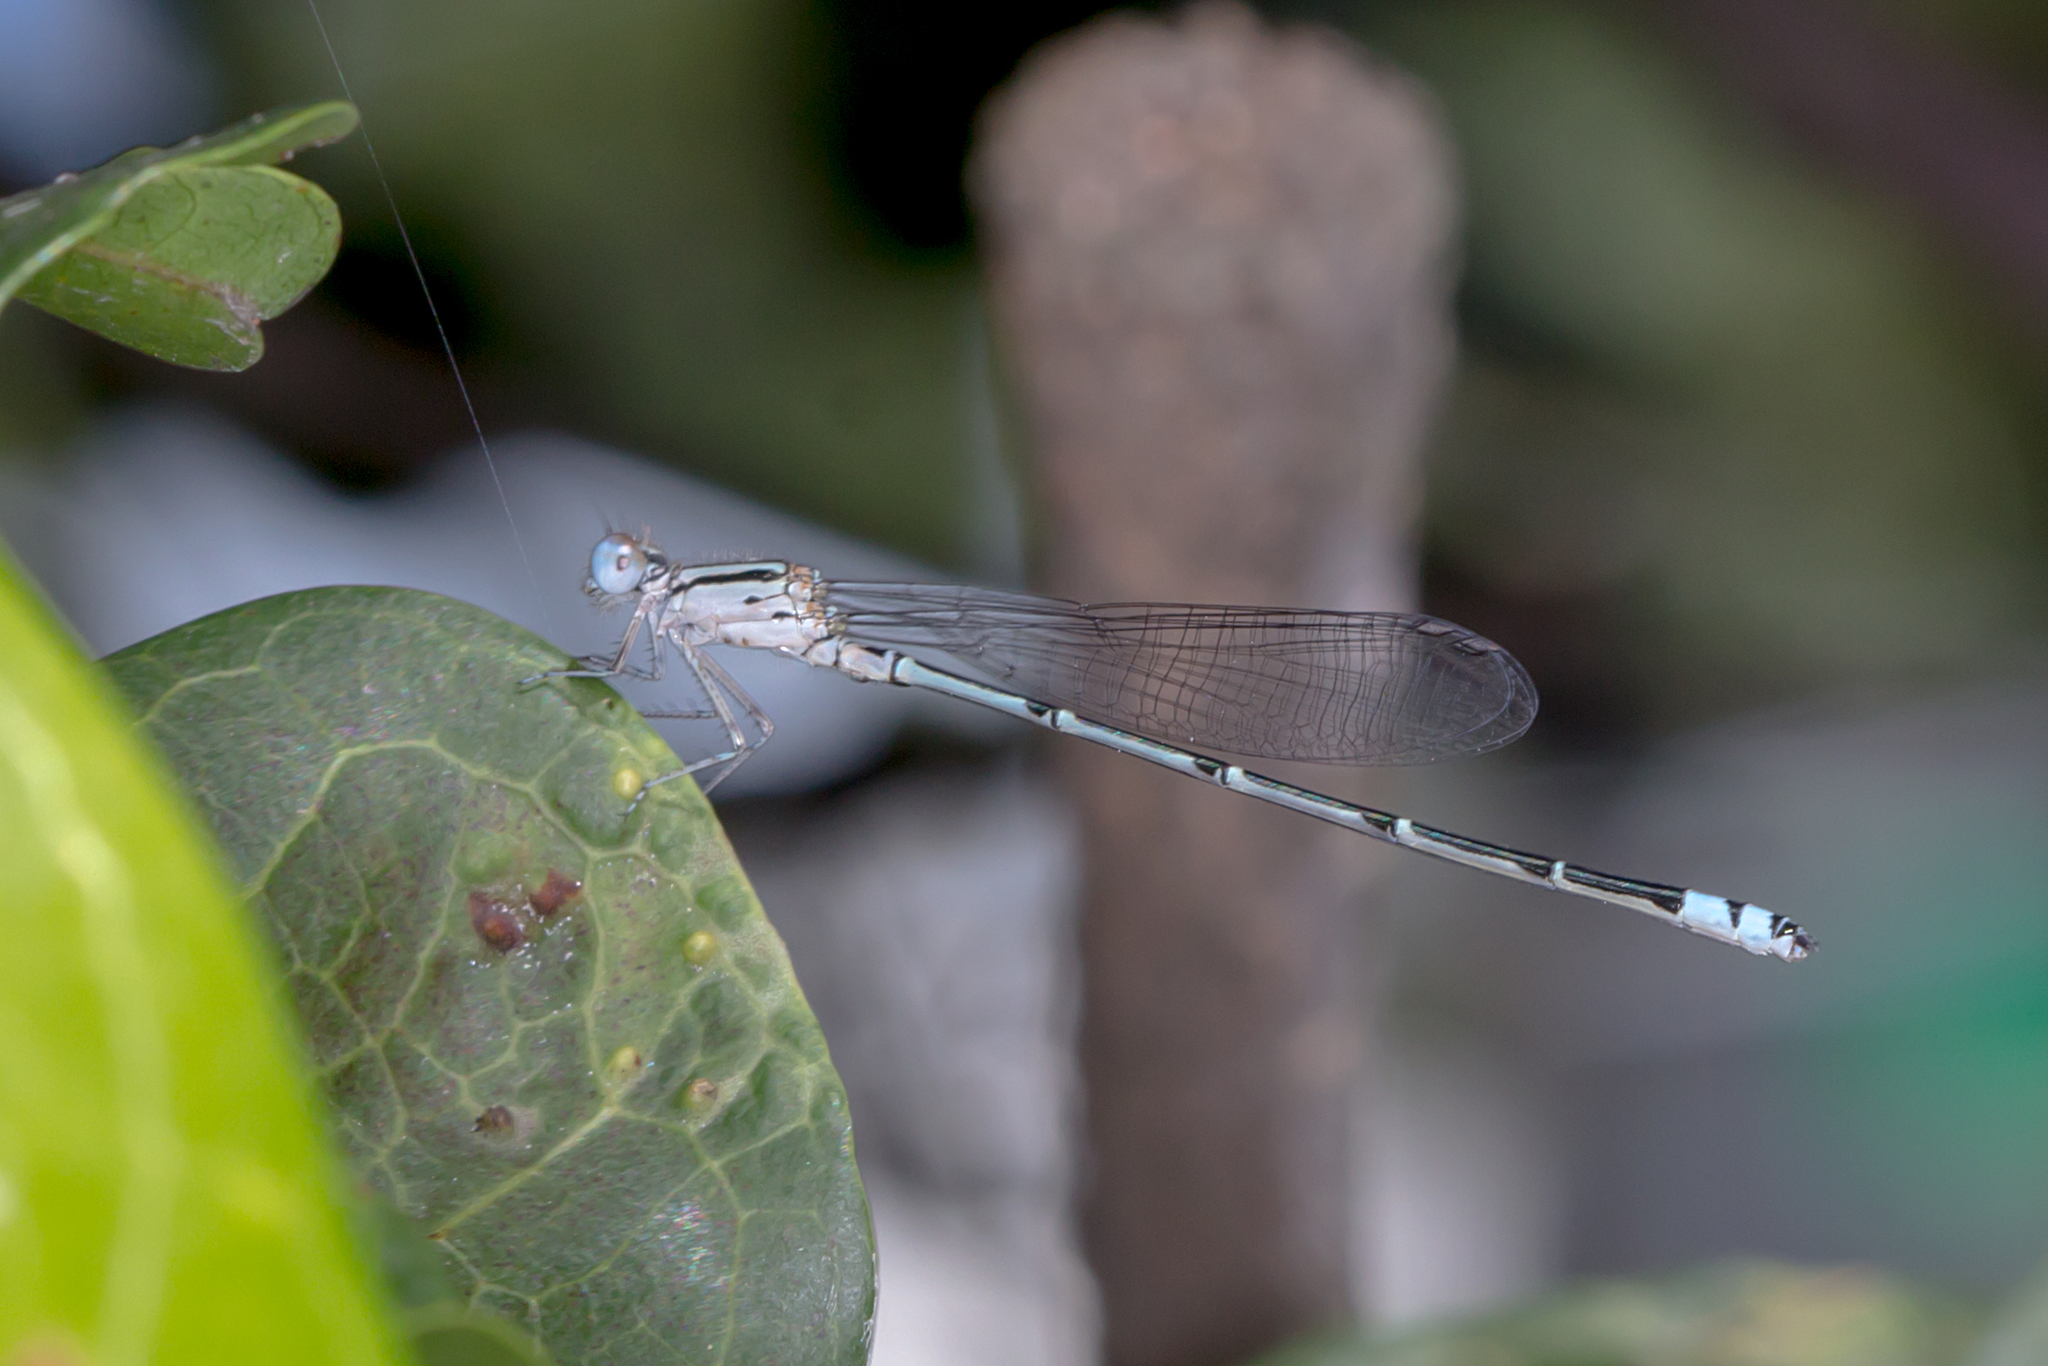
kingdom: Animalia
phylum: Arthropoda
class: Insecta
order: Odonata
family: Coenagrionidae
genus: Pseudagrion
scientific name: Pseudagrion microcephalum
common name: Blue riverdamsel
